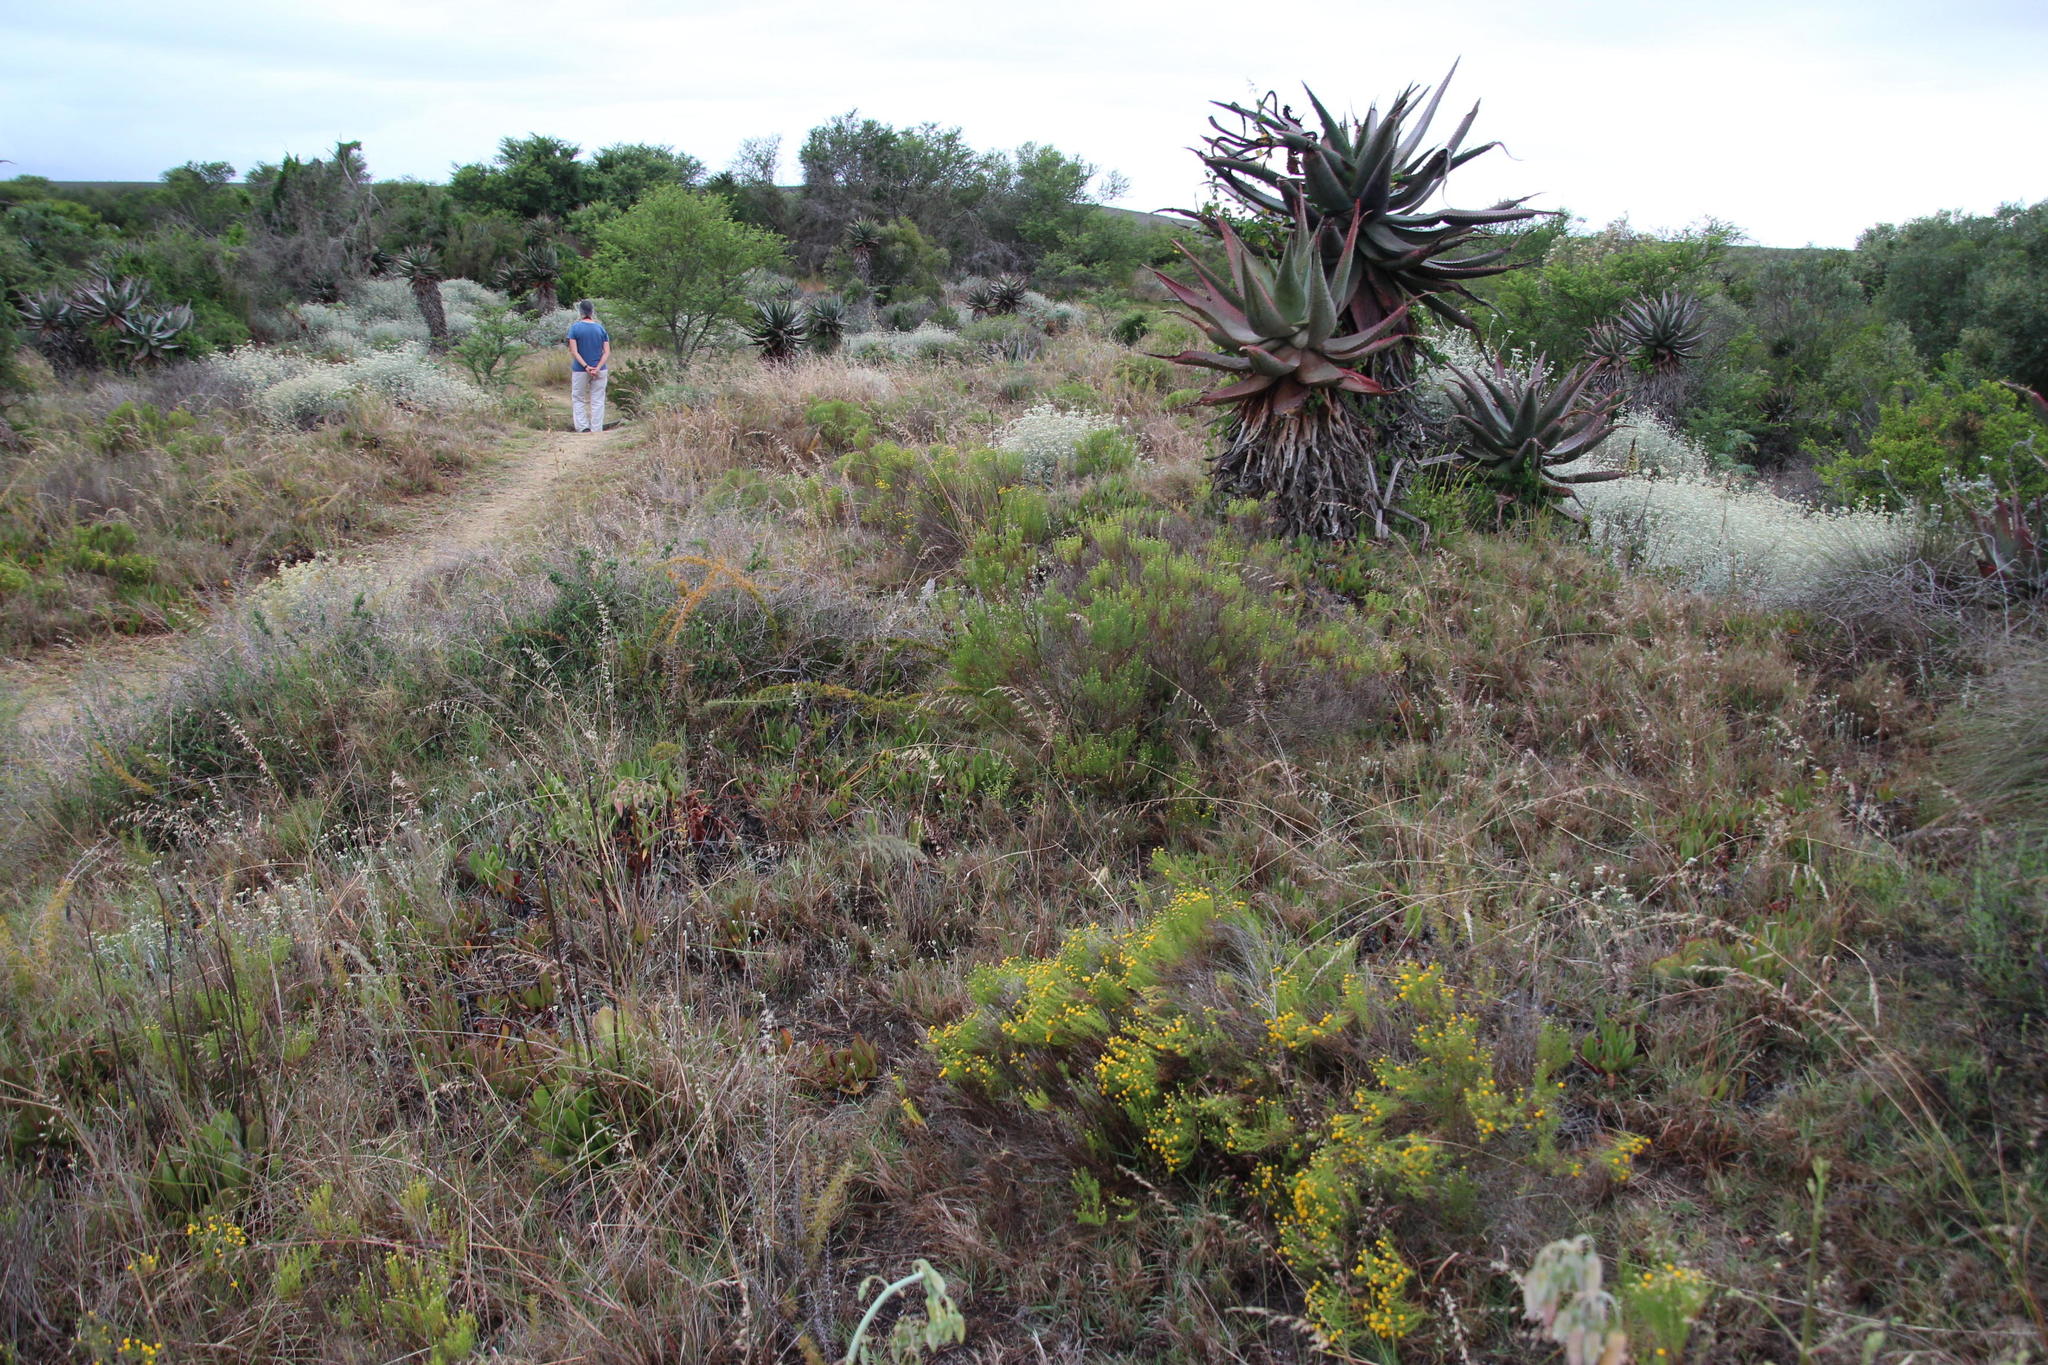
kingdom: Plantae
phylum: Tracheophyta
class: Magnoliopsida
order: Asterales
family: Asteraceae
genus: Chrysocoma
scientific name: Chrysocoma ciliata
